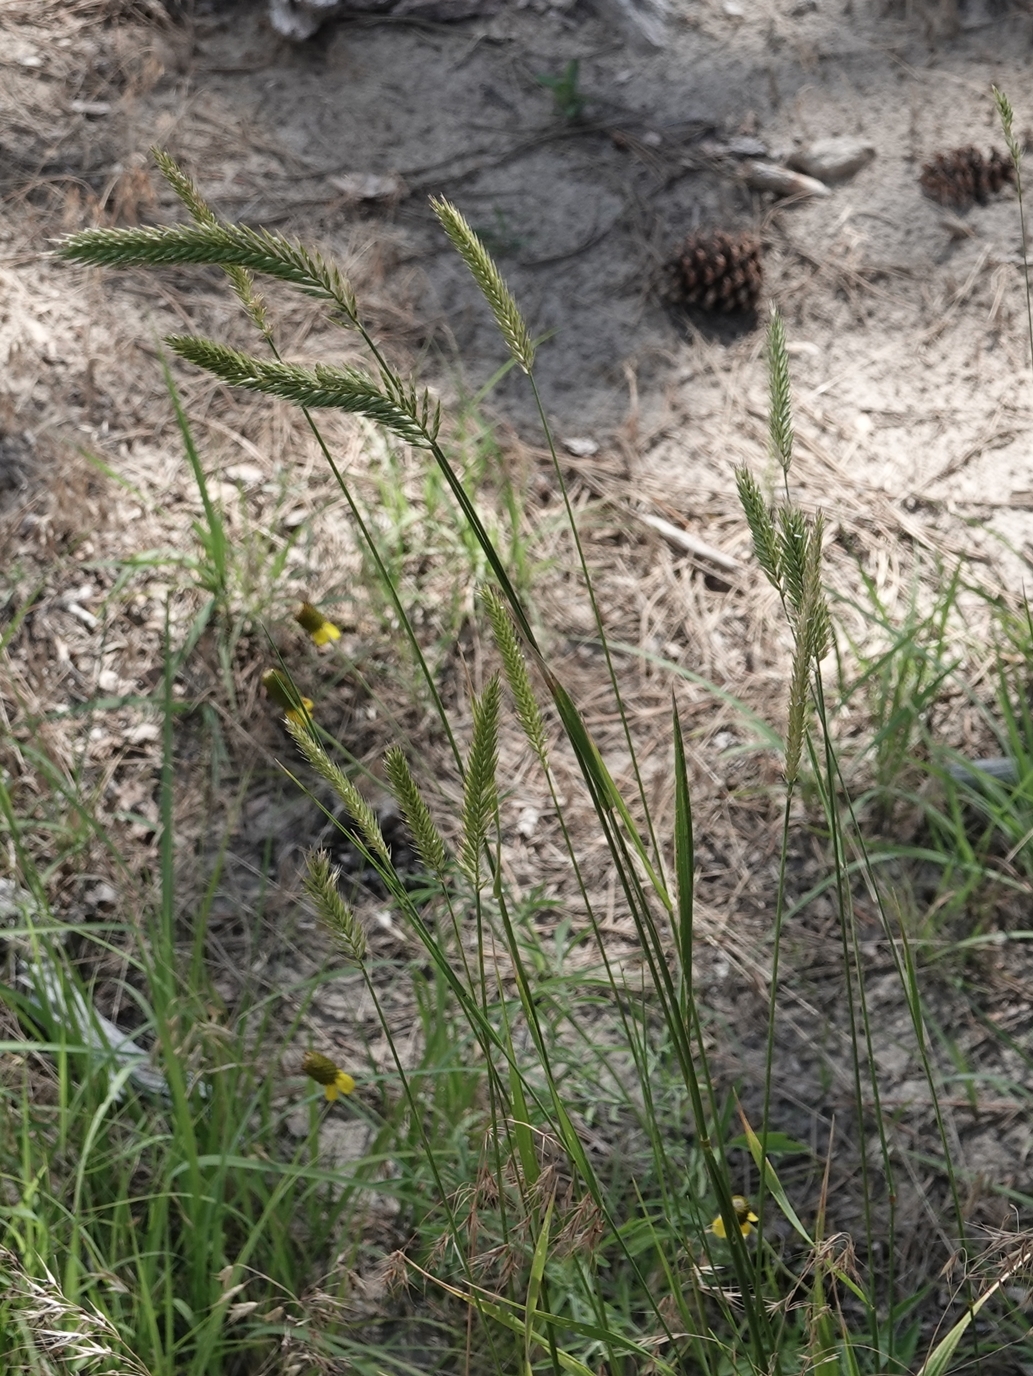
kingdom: Plantae
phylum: Tracheophyta
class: Liliopsida
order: Poales
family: Poaceae
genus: Agropyron
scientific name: Agropyron cristatum
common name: Crested wheatgrass
